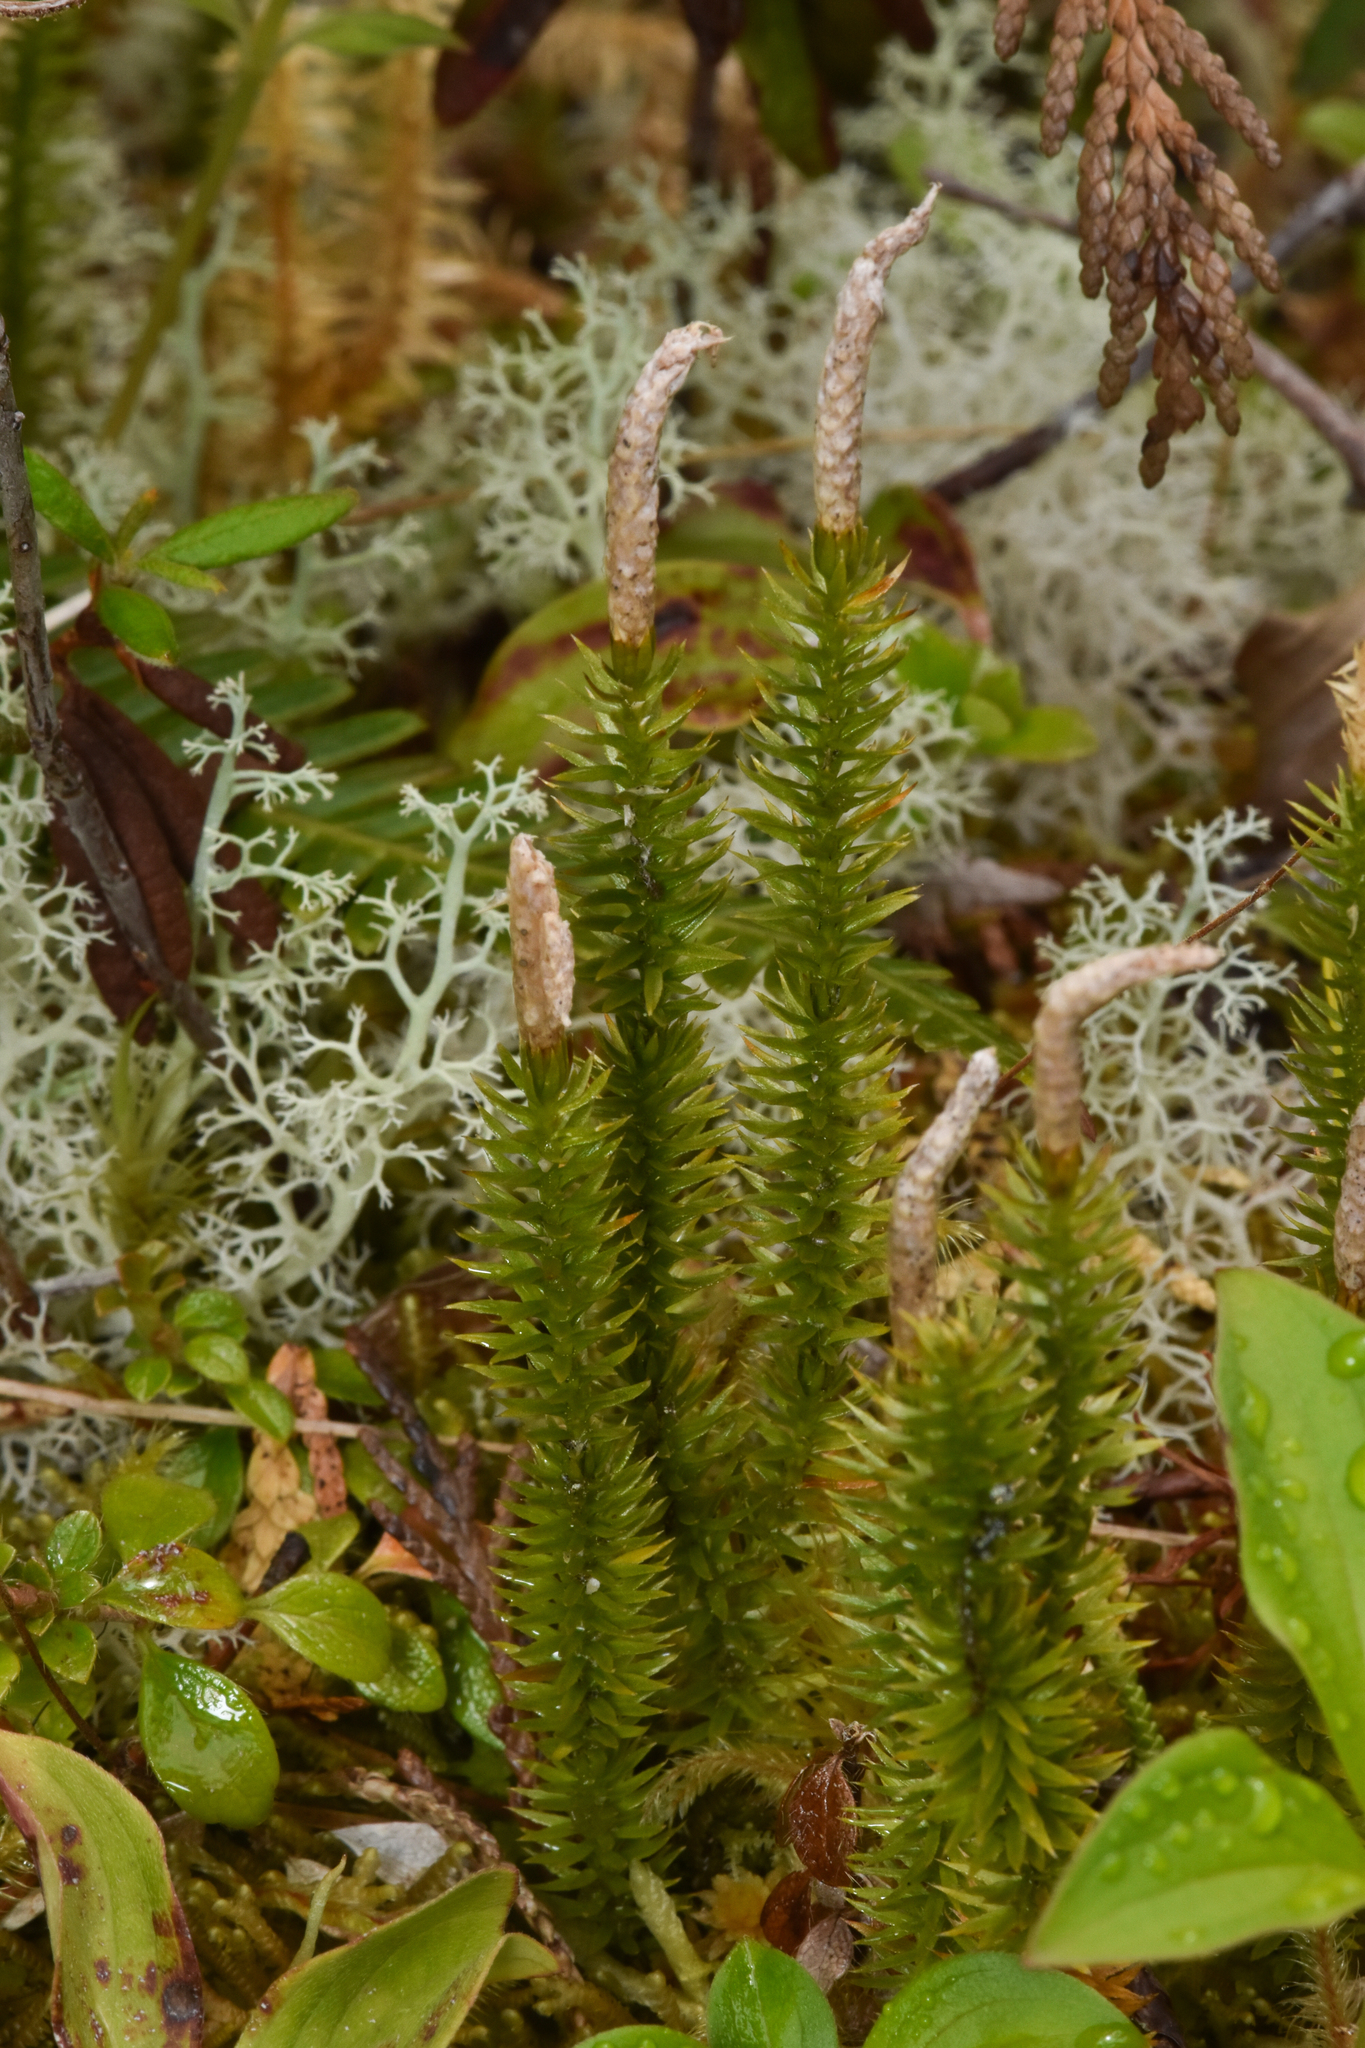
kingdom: Plantae
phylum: Tracheophyta
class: Lycopodiopsida
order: Lycopodiales
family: Lycopodiaceae
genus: Spinulum
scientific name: Spinulum annotinum
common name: Interrupted club-moss
